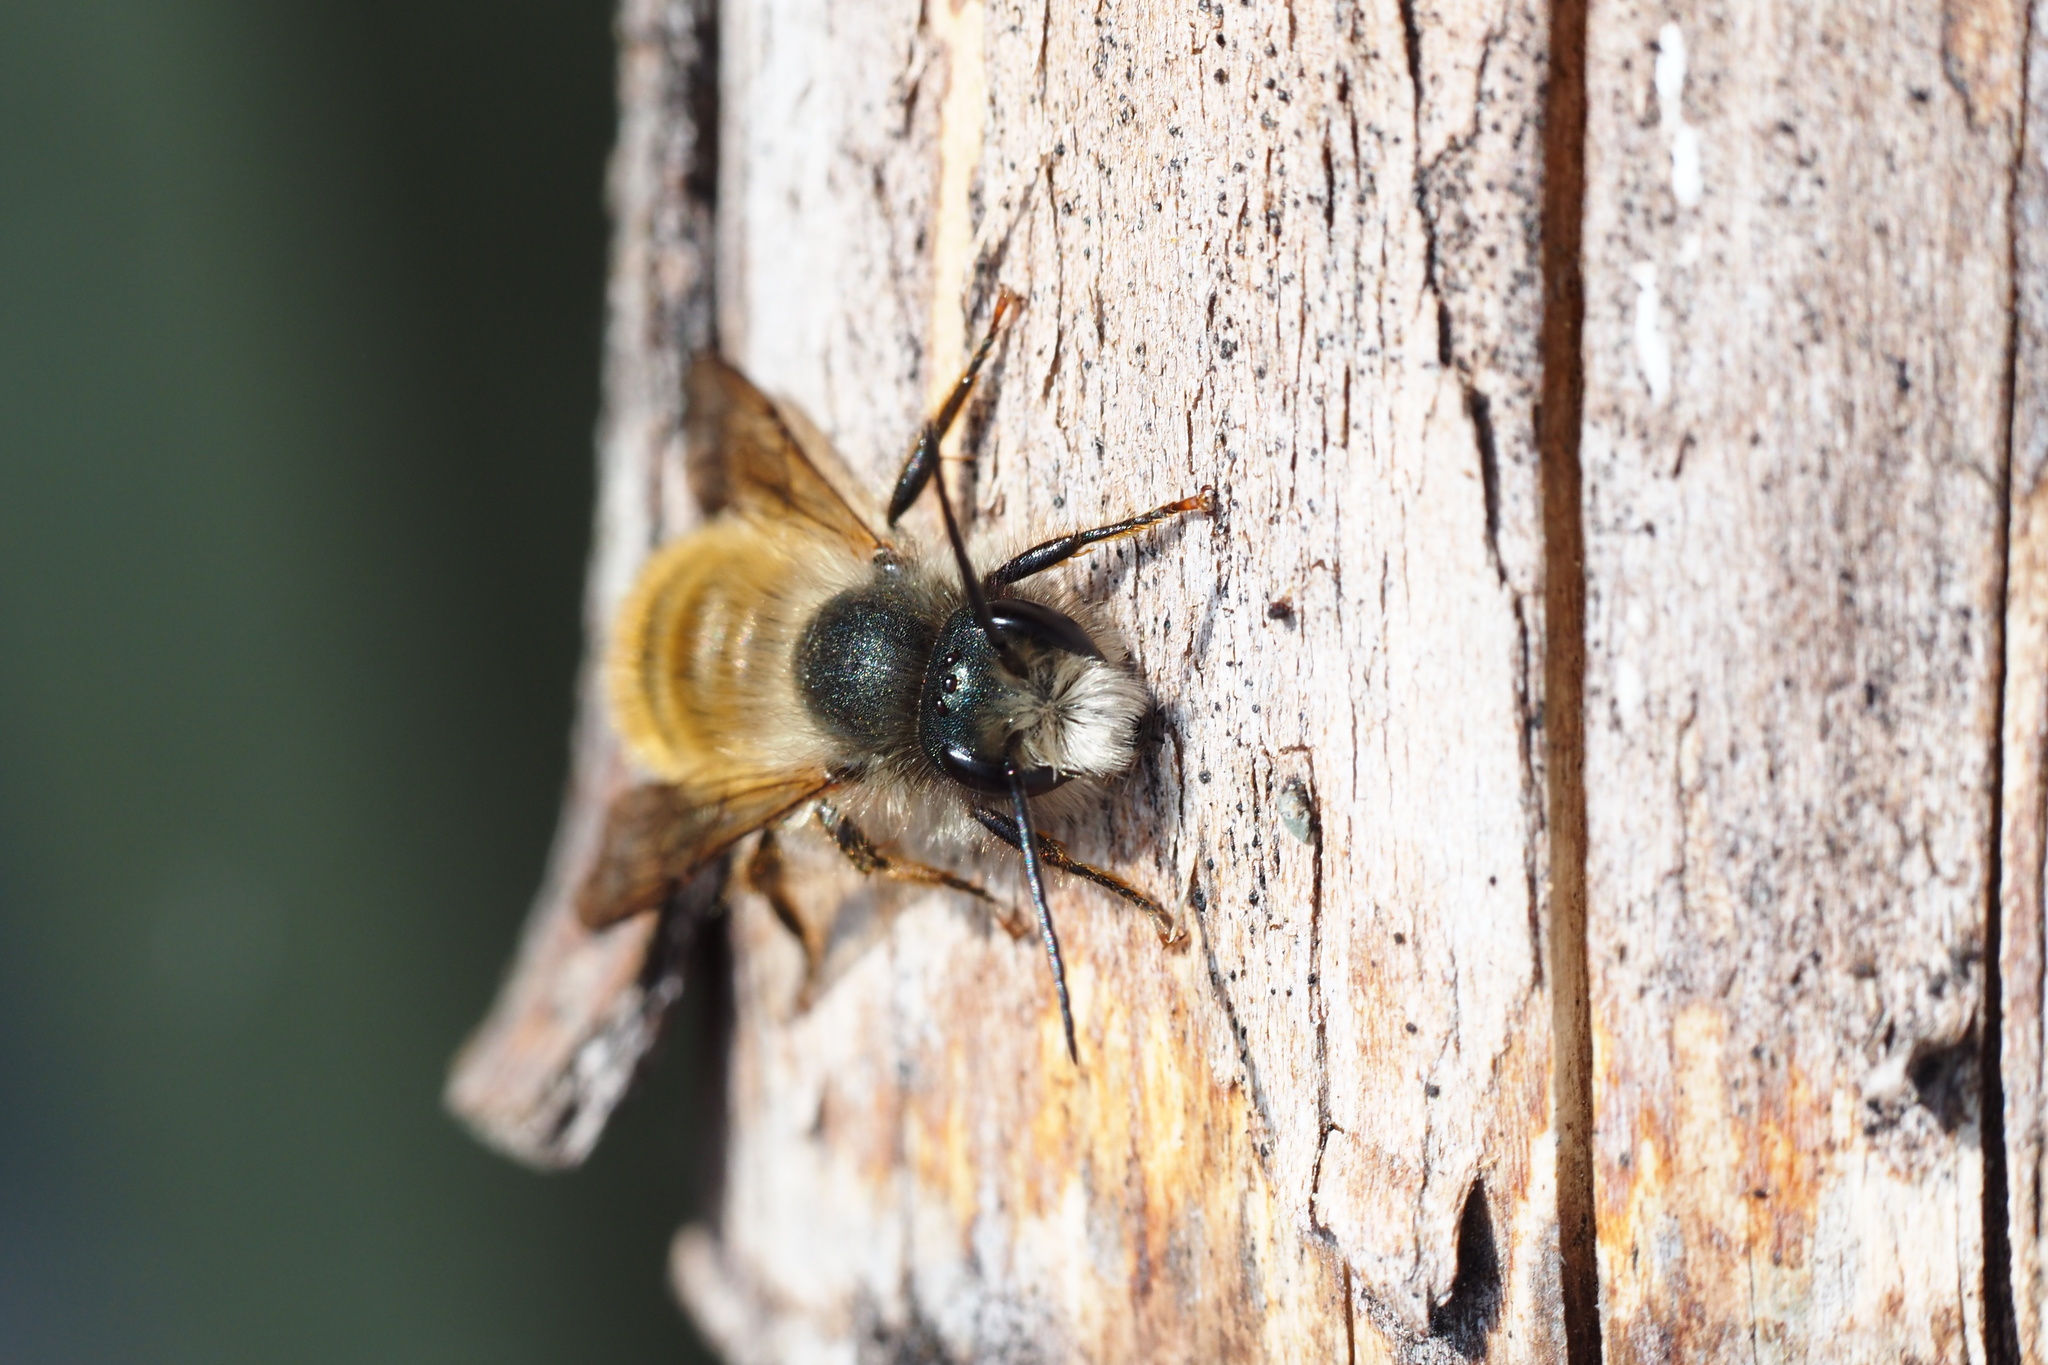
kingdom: Animalia
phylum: Arthropoda
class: Insecta
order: Hymenoptera
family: Megachilidae
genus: Osmia
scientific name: Osmia bicornis
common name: Red mason bee
